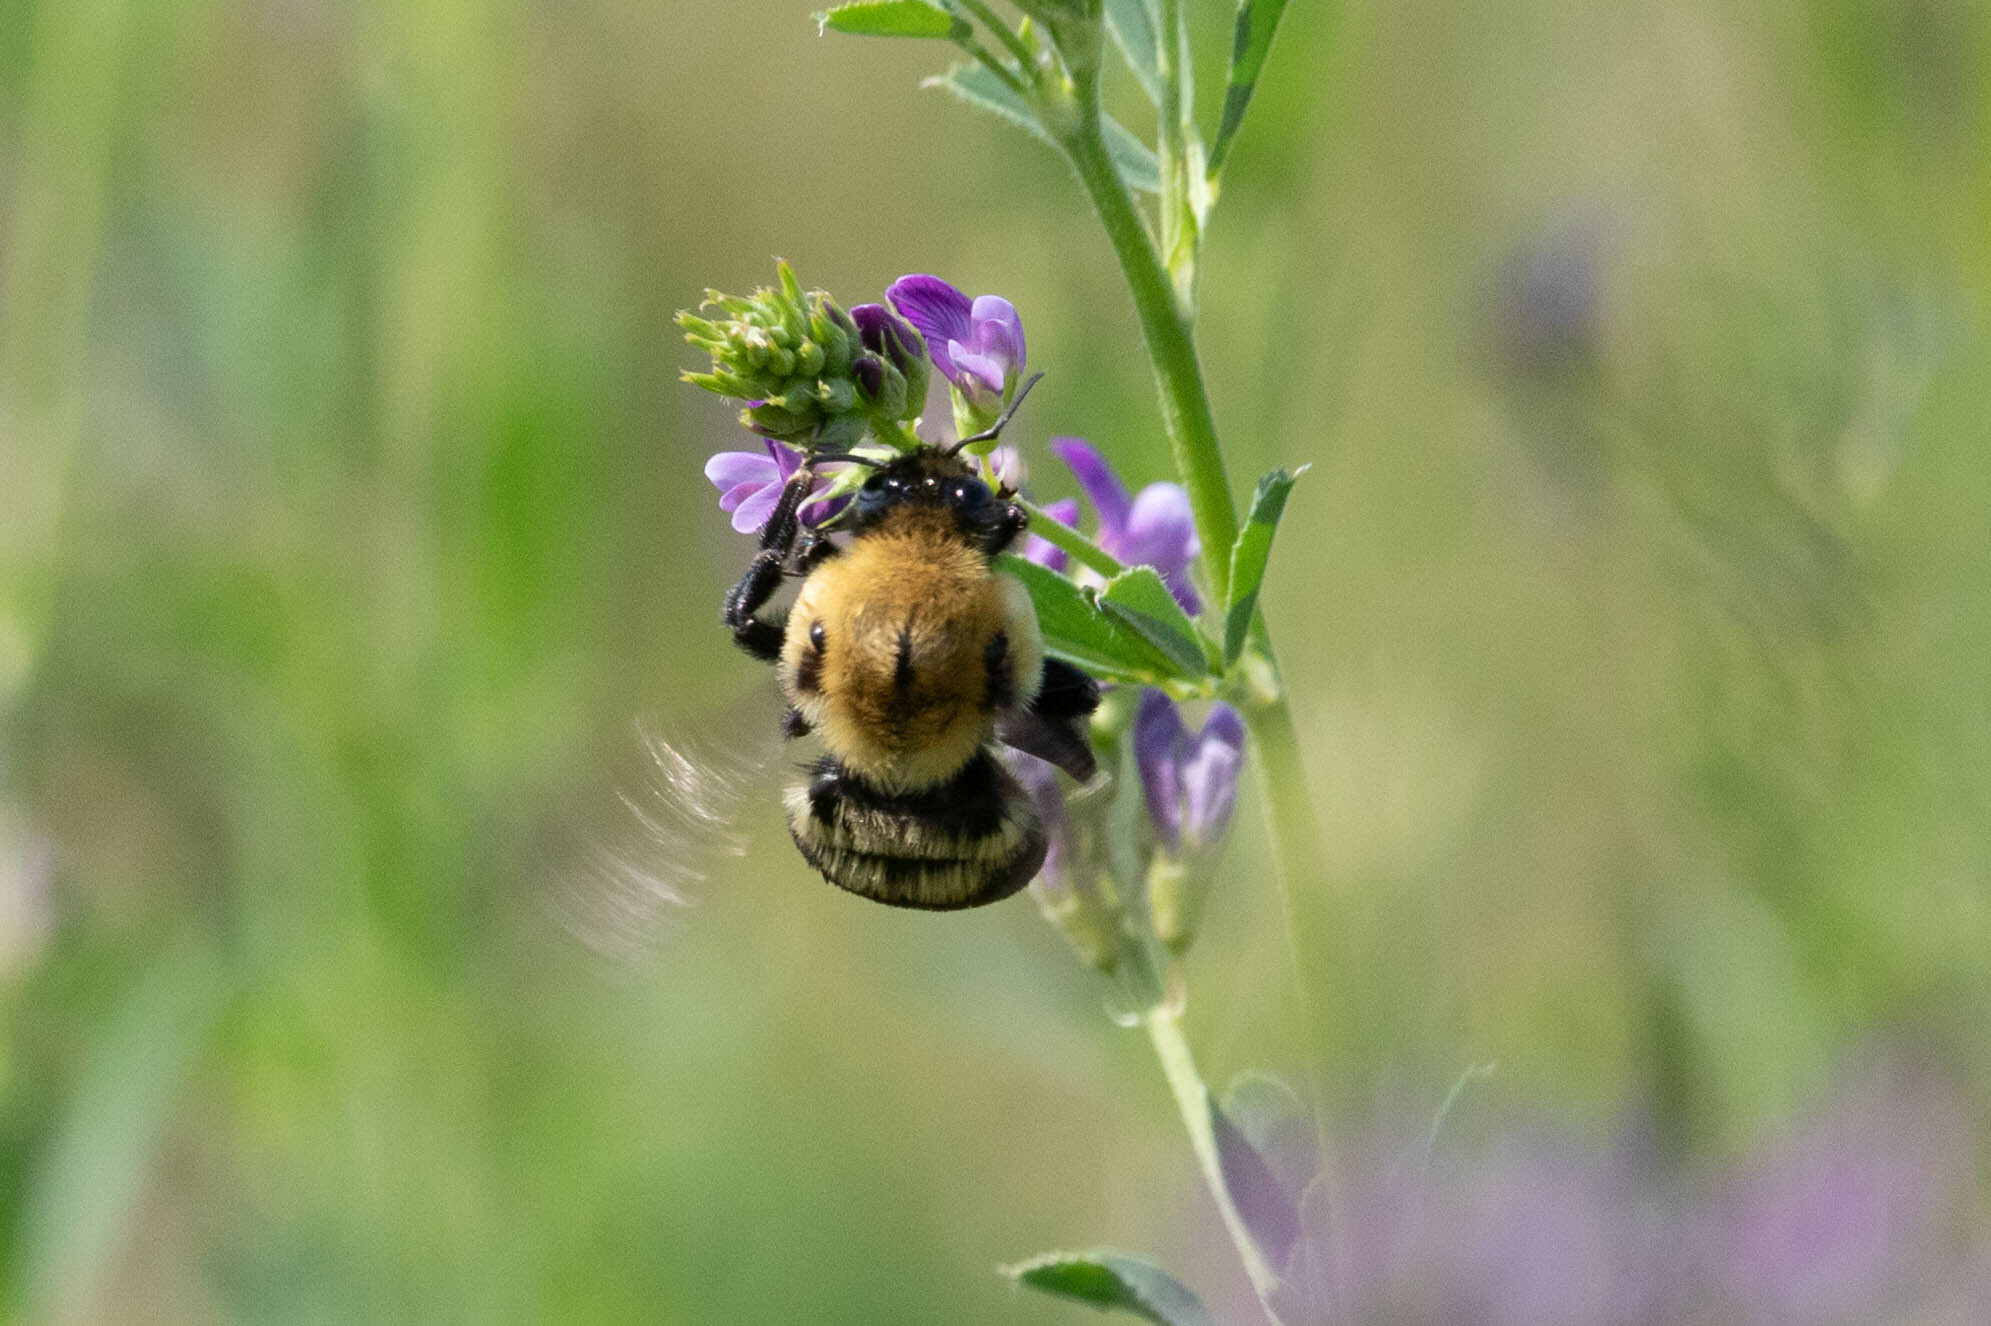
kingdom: Animalia
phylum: Arthropoda
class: Insecta
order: Hymenoptera
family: Apidae
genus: Bombus
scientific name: Bombus griseocollis
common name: Brown-belted bumble bee
